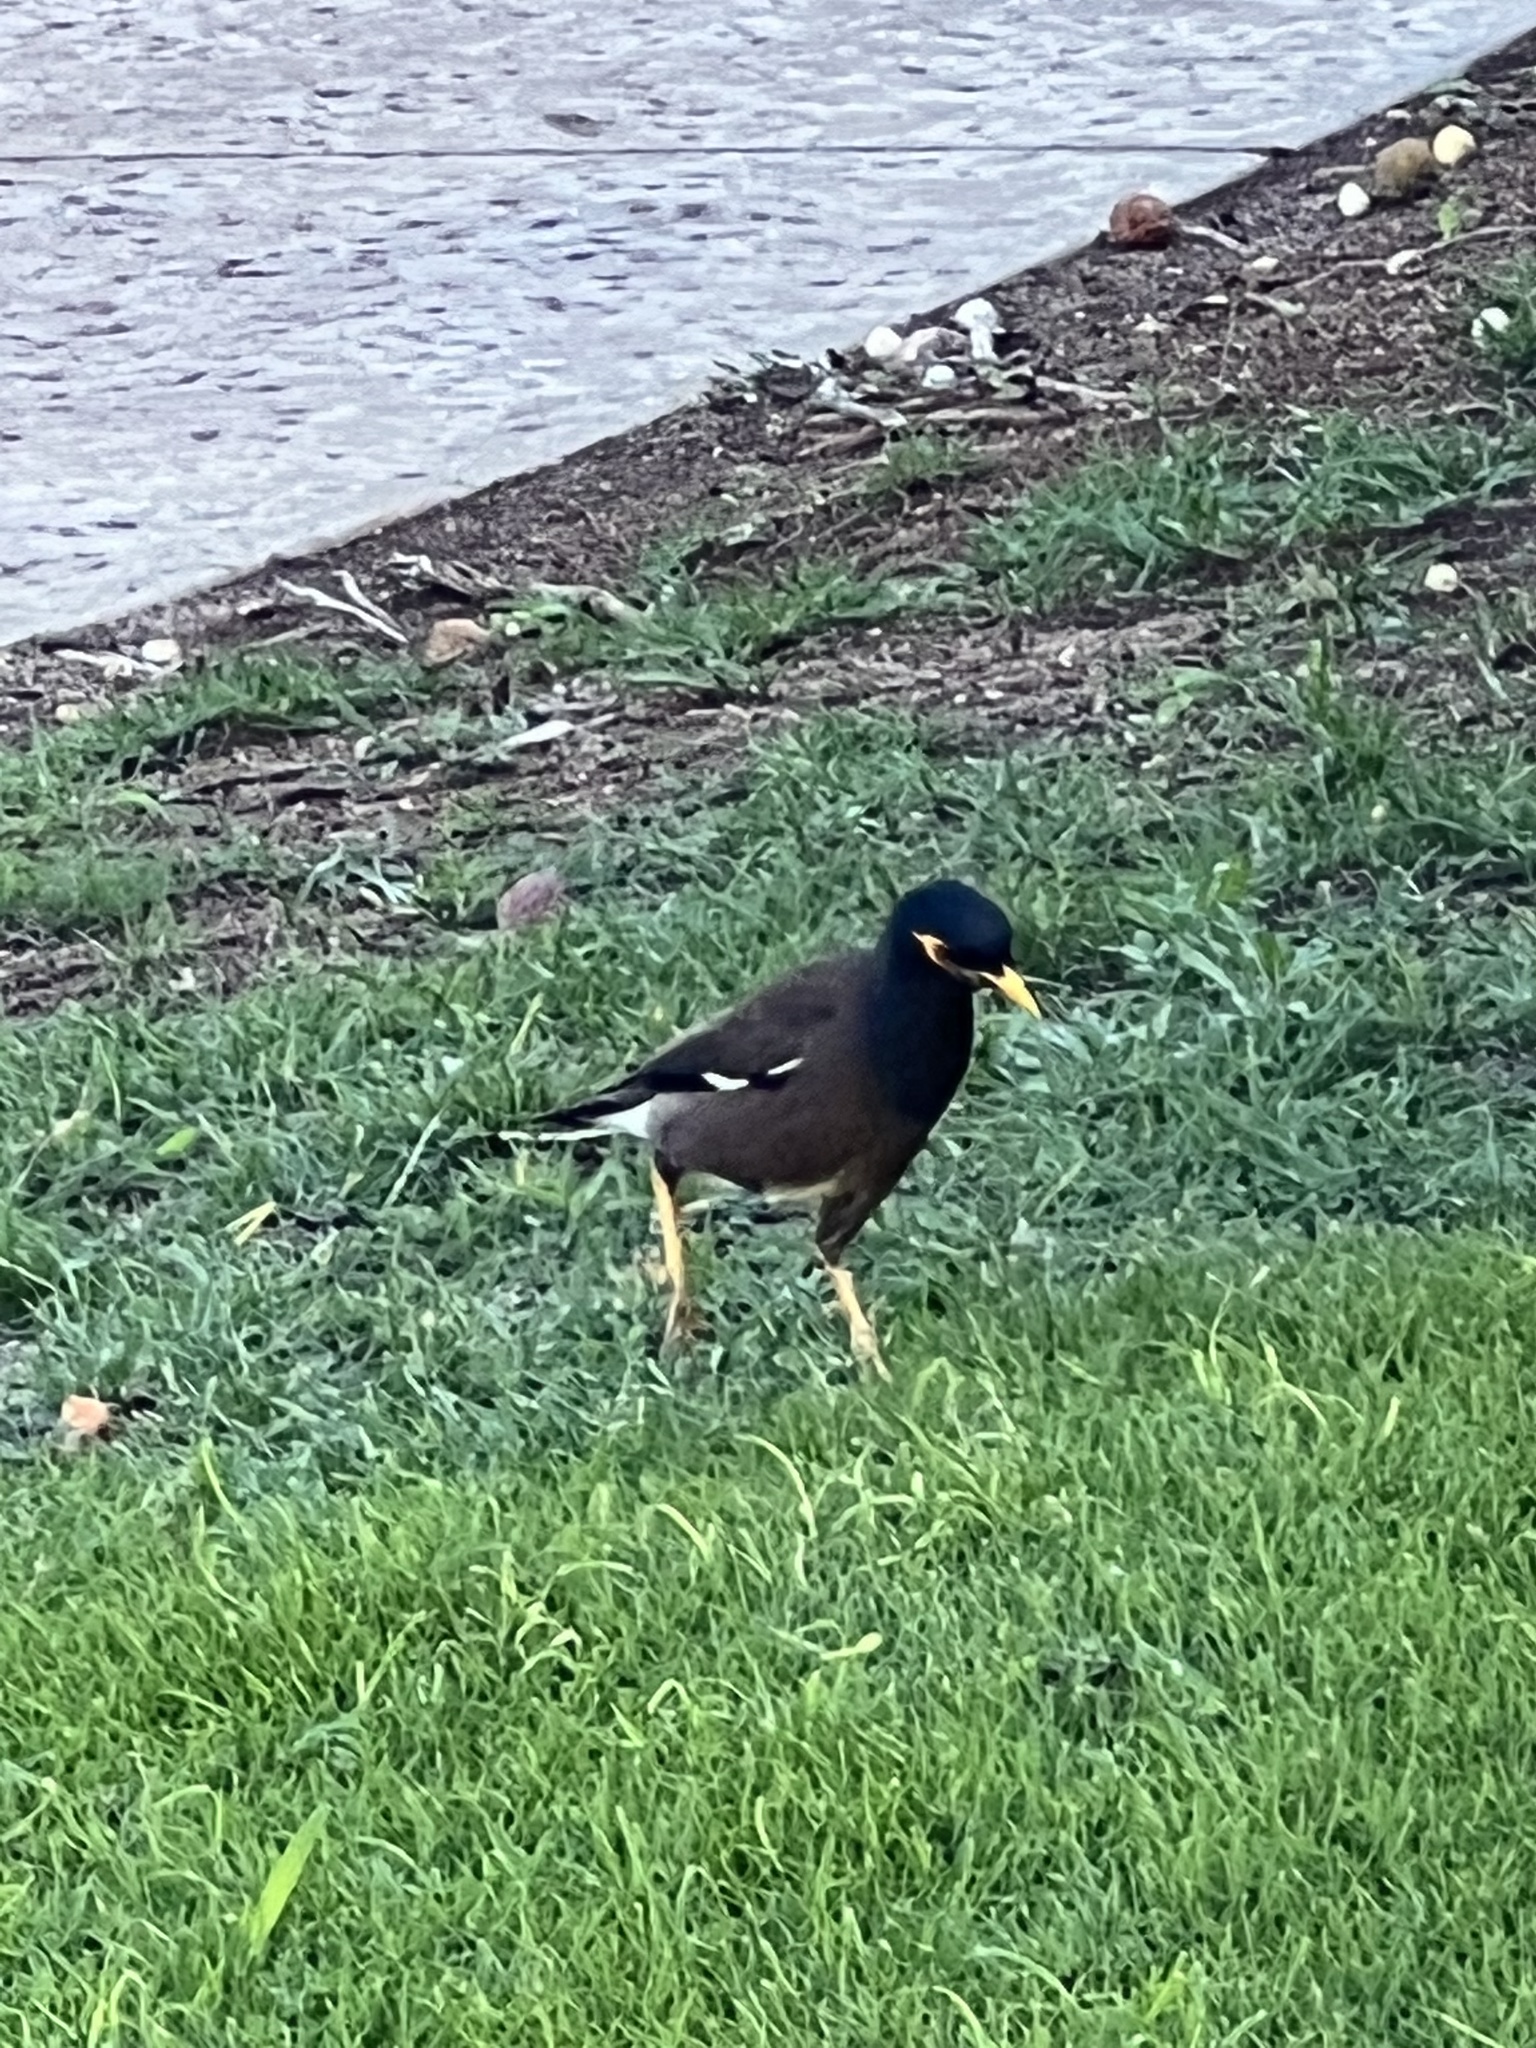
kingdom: Animalia
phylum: Chordata
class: Aves
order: Passeriformes
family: Sturnidae
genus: Acridotheres
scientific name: Acridotheres tristis
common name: Common myna
